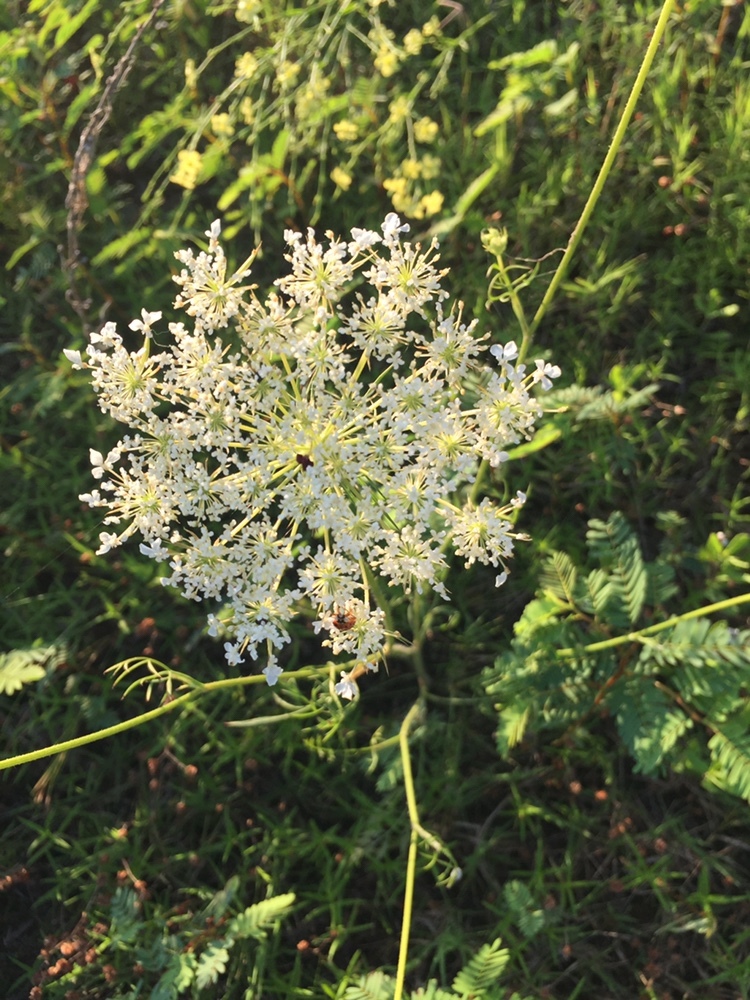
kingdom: Plantae
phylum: Tracheophyta
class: Magnoliopsida
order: Apiales
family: Apiaceae
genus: Daucus
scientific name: Daucus carota
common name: Wild carrot
